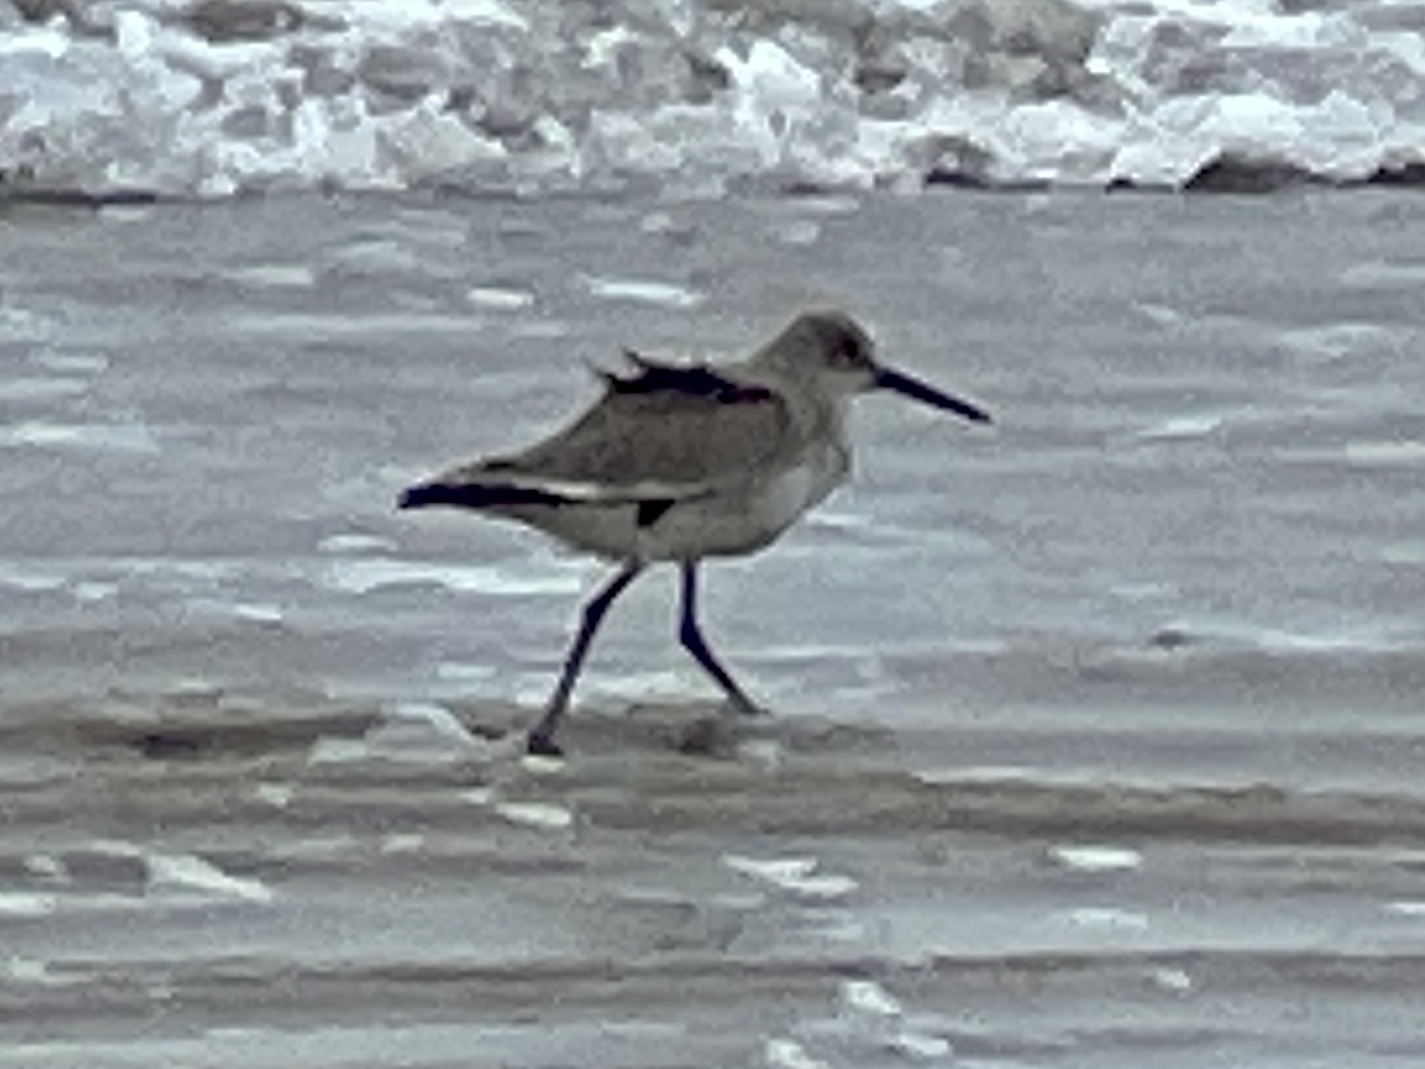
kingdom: Animalia
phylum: Chordata
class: Aves
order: Charadriiformes
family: Scolopacidae
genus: Tringa
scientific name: Tringa semipalmata
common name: Willet
